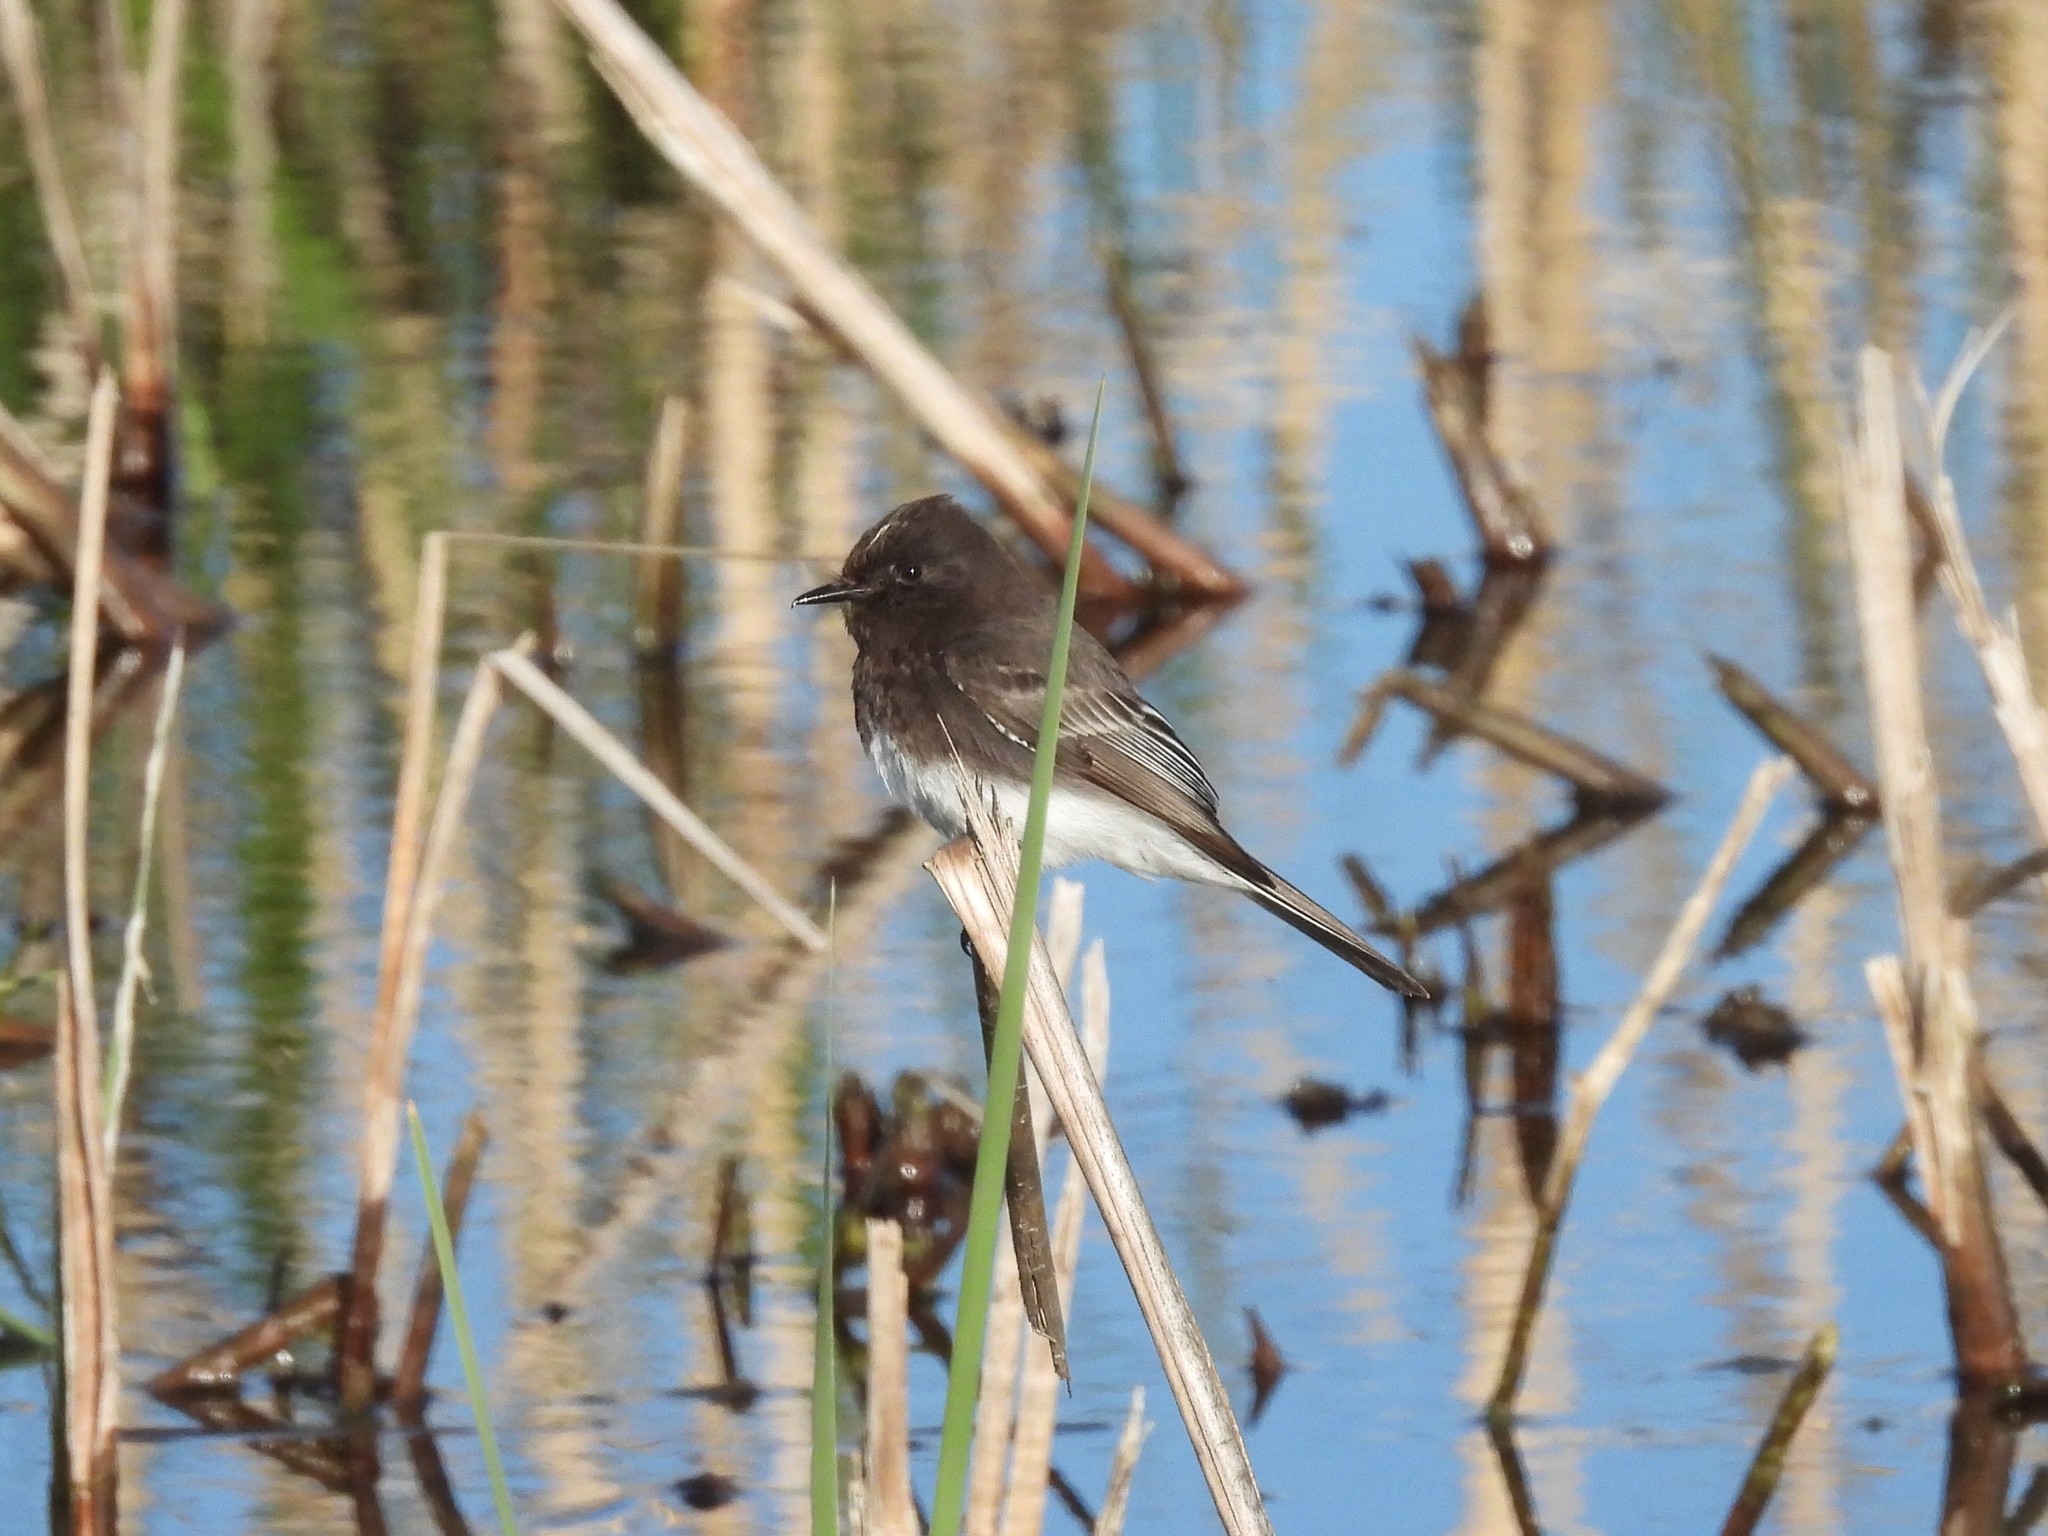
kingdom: Animalia
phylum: Chordata
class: Aves
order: Passeriformes
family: Tyrannidae
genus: Sayornis
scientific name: Sayornis nigricans
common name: Black phoebe
